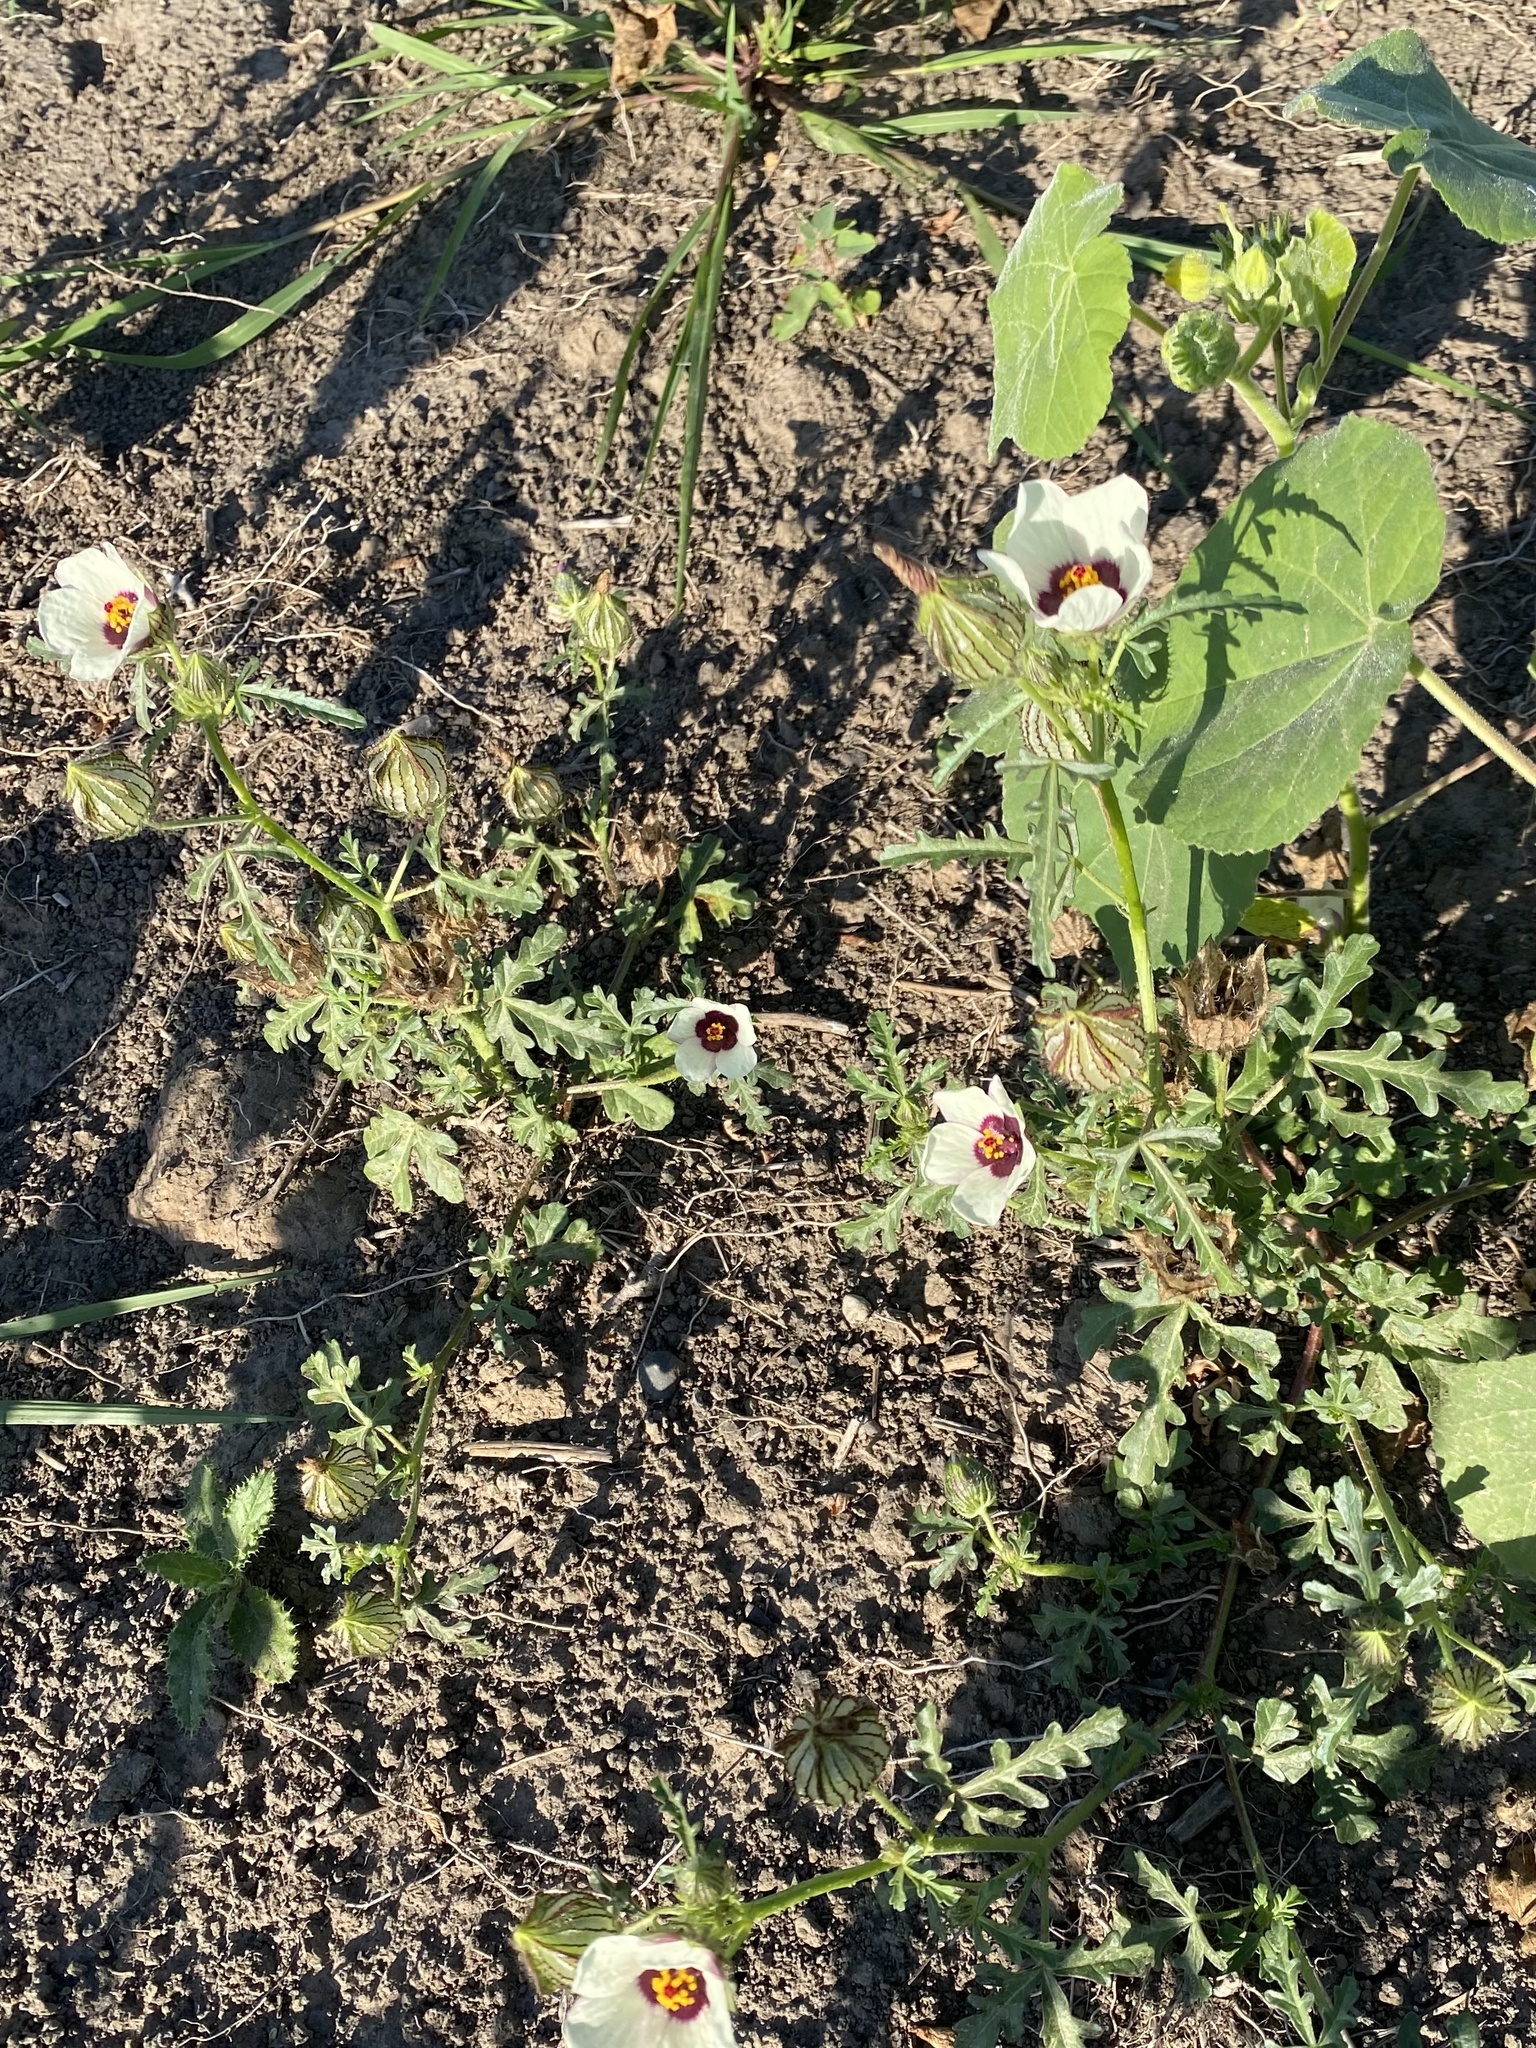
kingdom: Plantae
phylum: Tracheophyta
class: Magnoliopsida
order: Malvales
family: Malvaceae
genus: Hibiscus
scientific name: Hibiscus trionum
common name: Bladder ketmia
